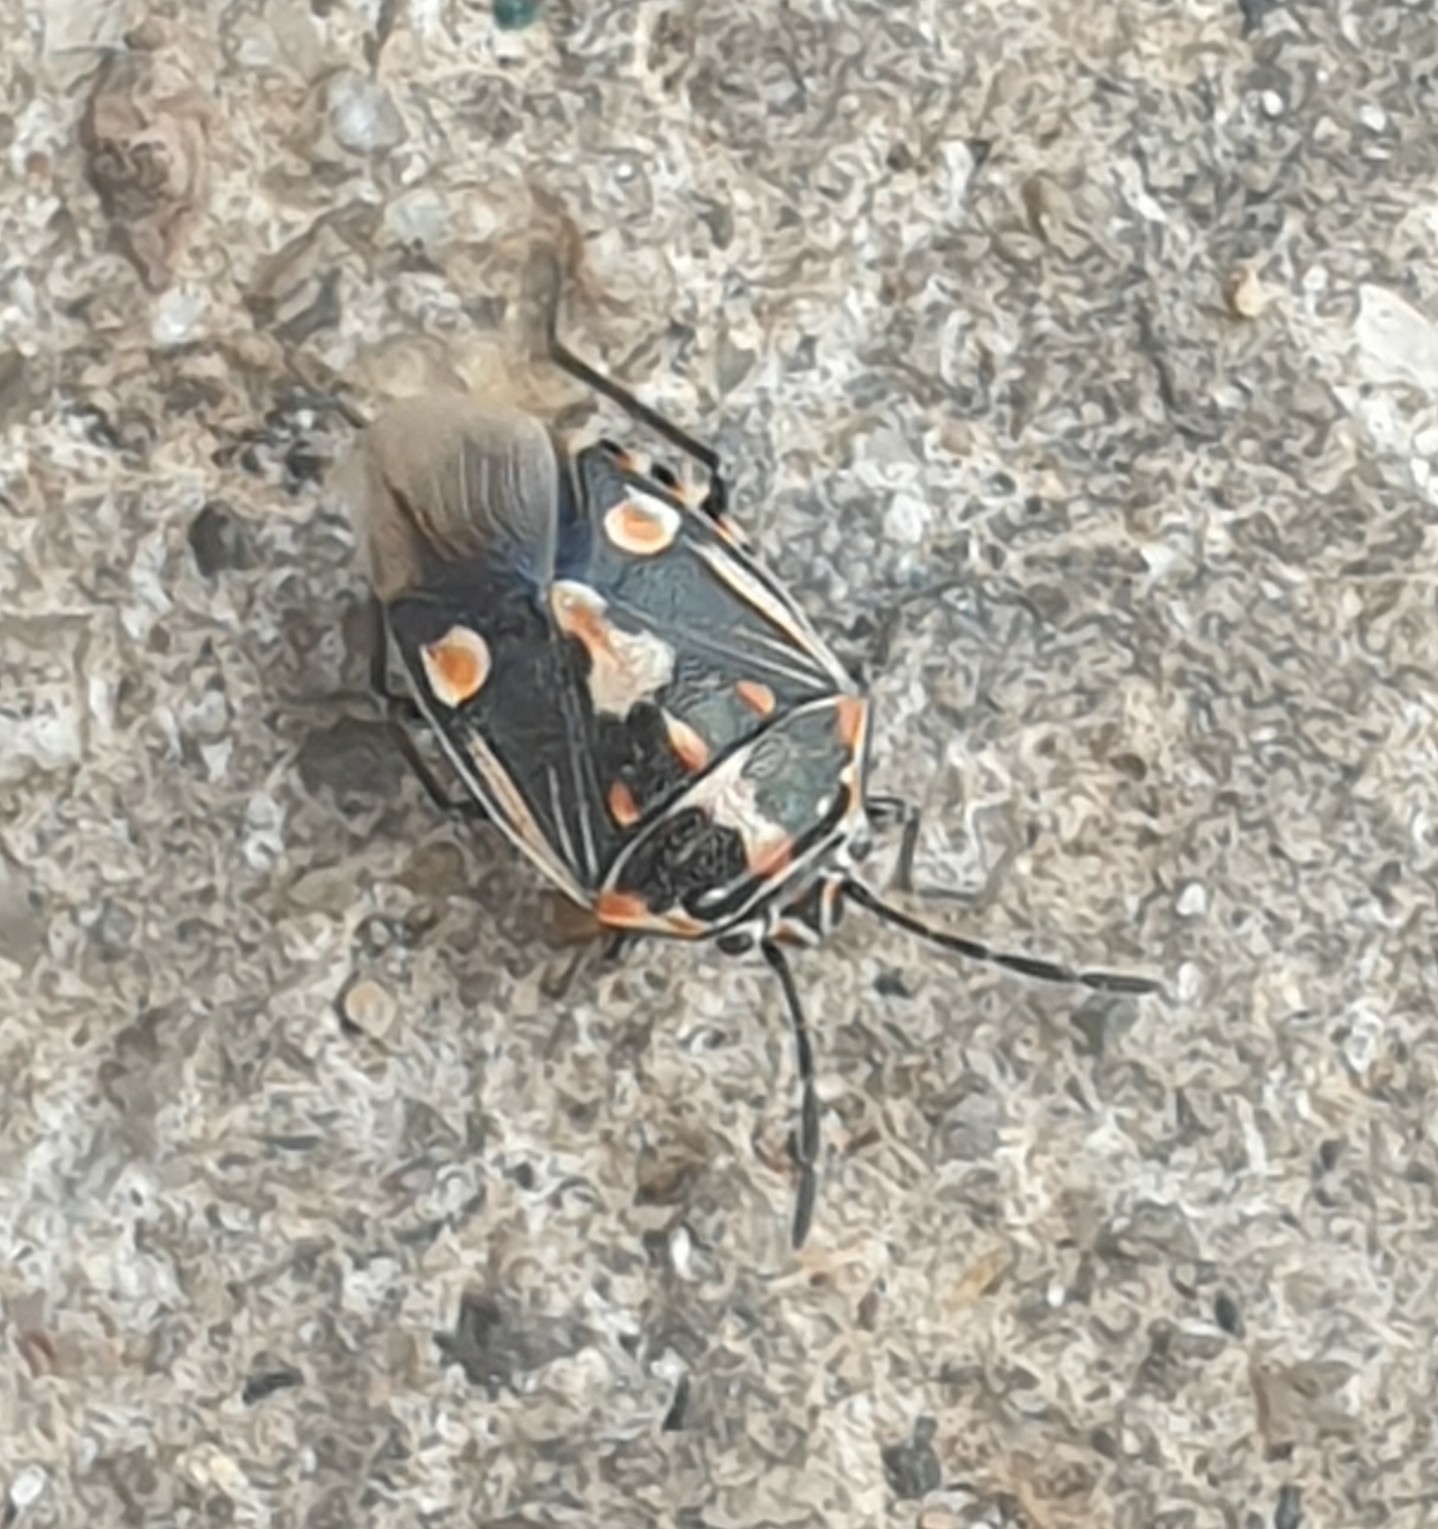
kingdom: Animalia
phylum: Arthropoda
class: Insecta
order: Hemiptera
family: Pentatomidae
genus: Bagrada
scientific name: Bagrada hilaris
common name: Bagrada bug
